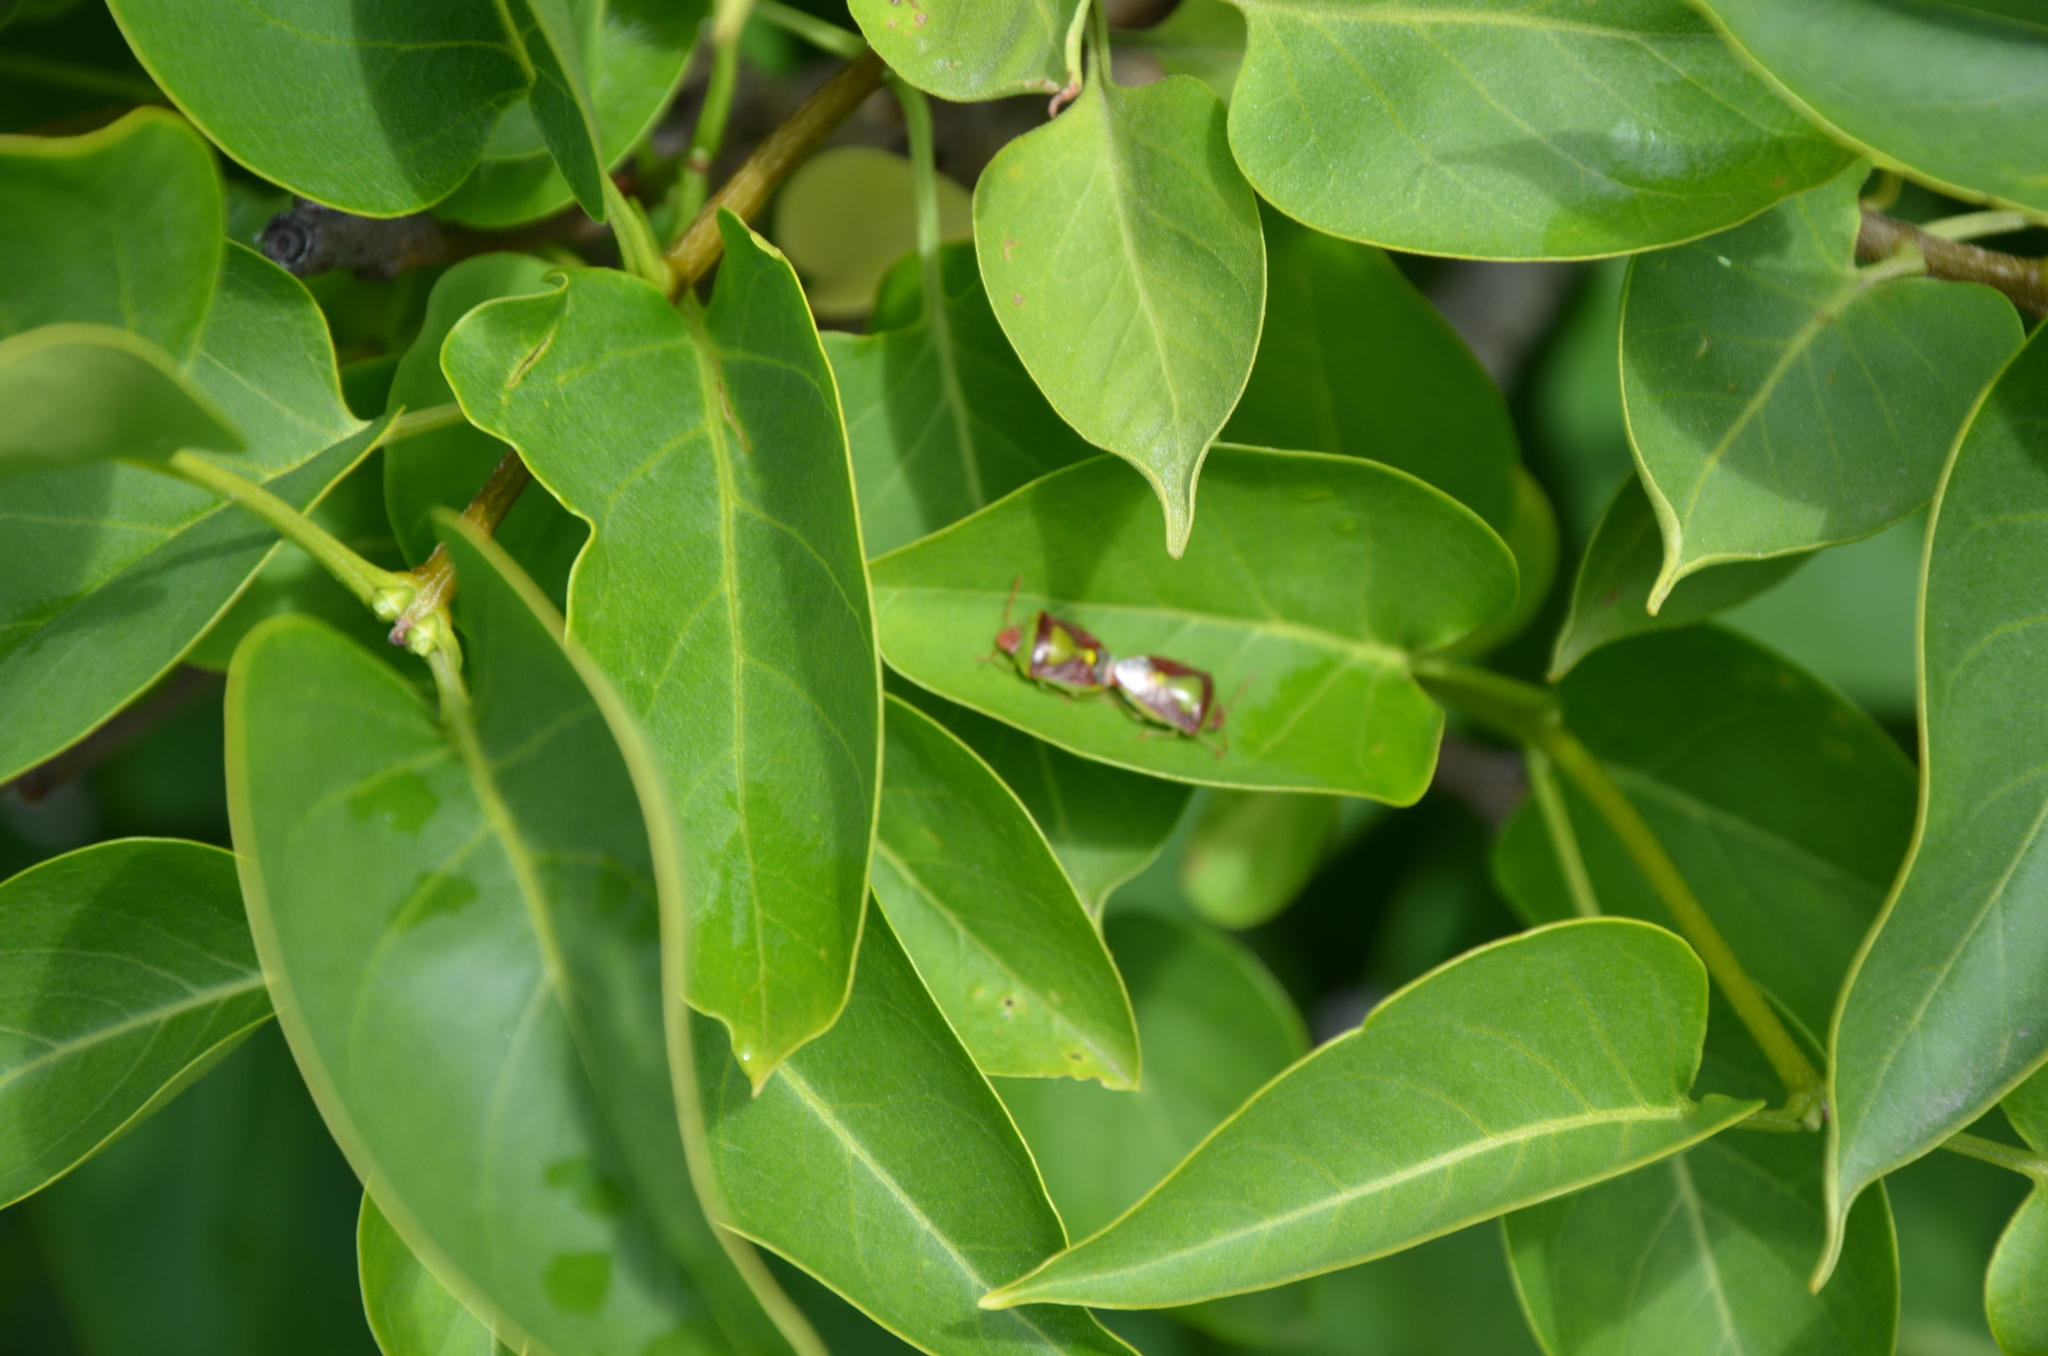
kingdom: Animalia
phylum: Arthropoda
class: Insecta
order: Hemiptera
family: Pentatomidae
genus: Banasa
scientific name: Banasa dimidiata
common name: Green burgundy stink bug
